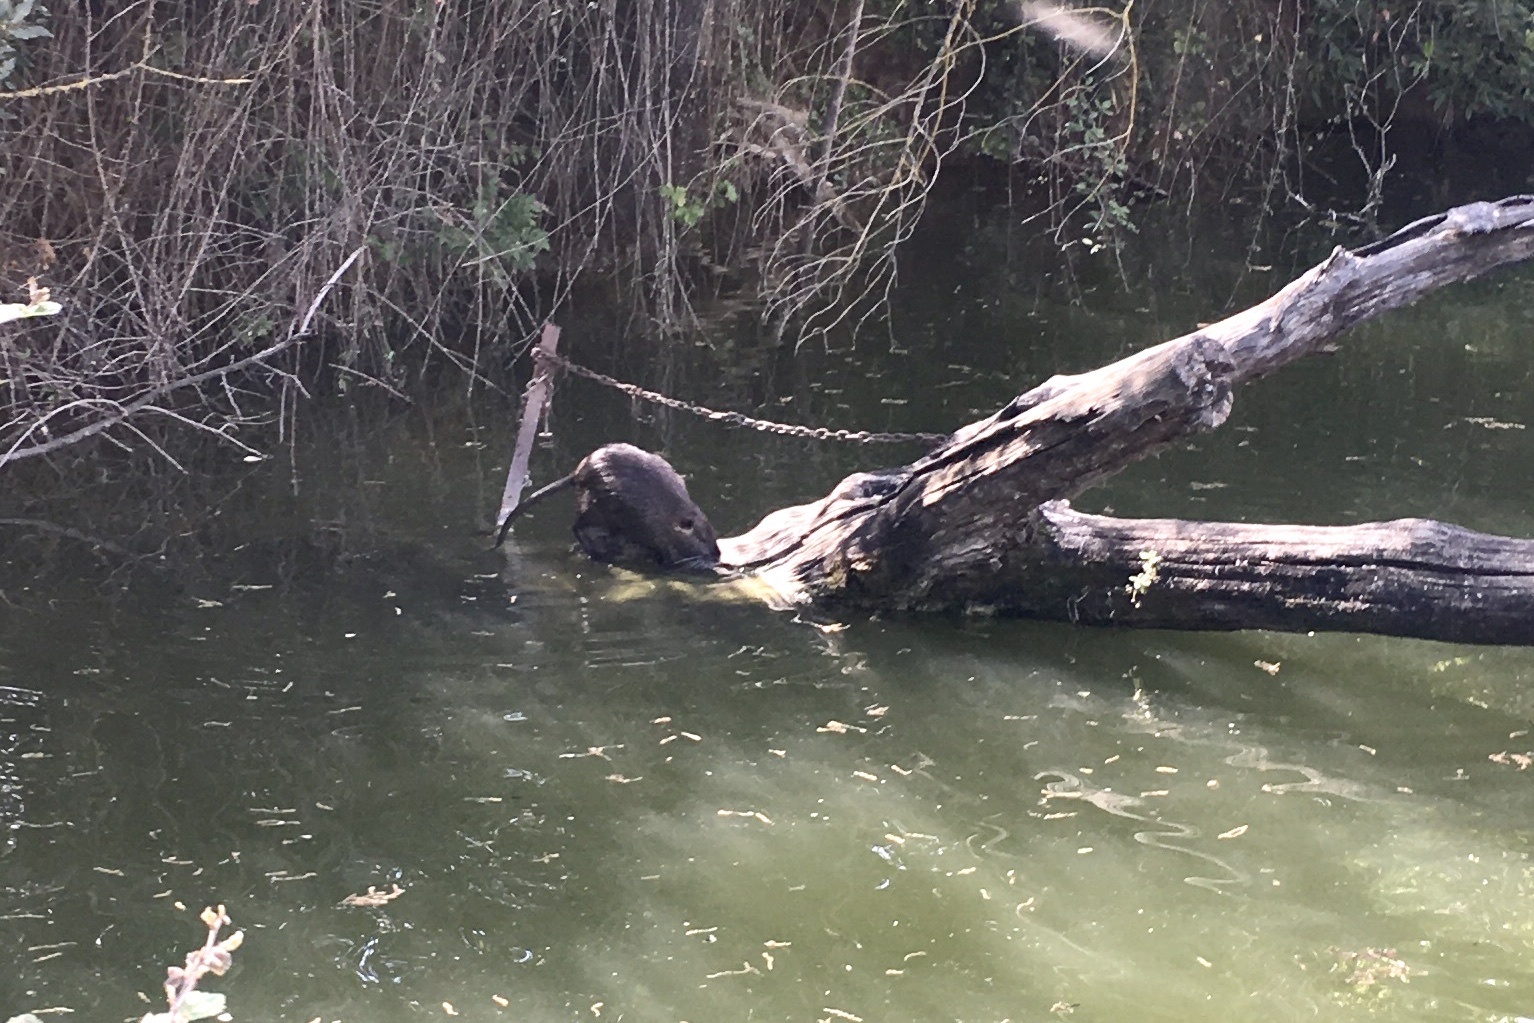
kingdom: Animalia
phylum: Chordata
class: Mammalia
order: Rodentia
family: Myocastoridae
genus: Myocastor
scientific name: Myocastor coypus
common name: Coypu
